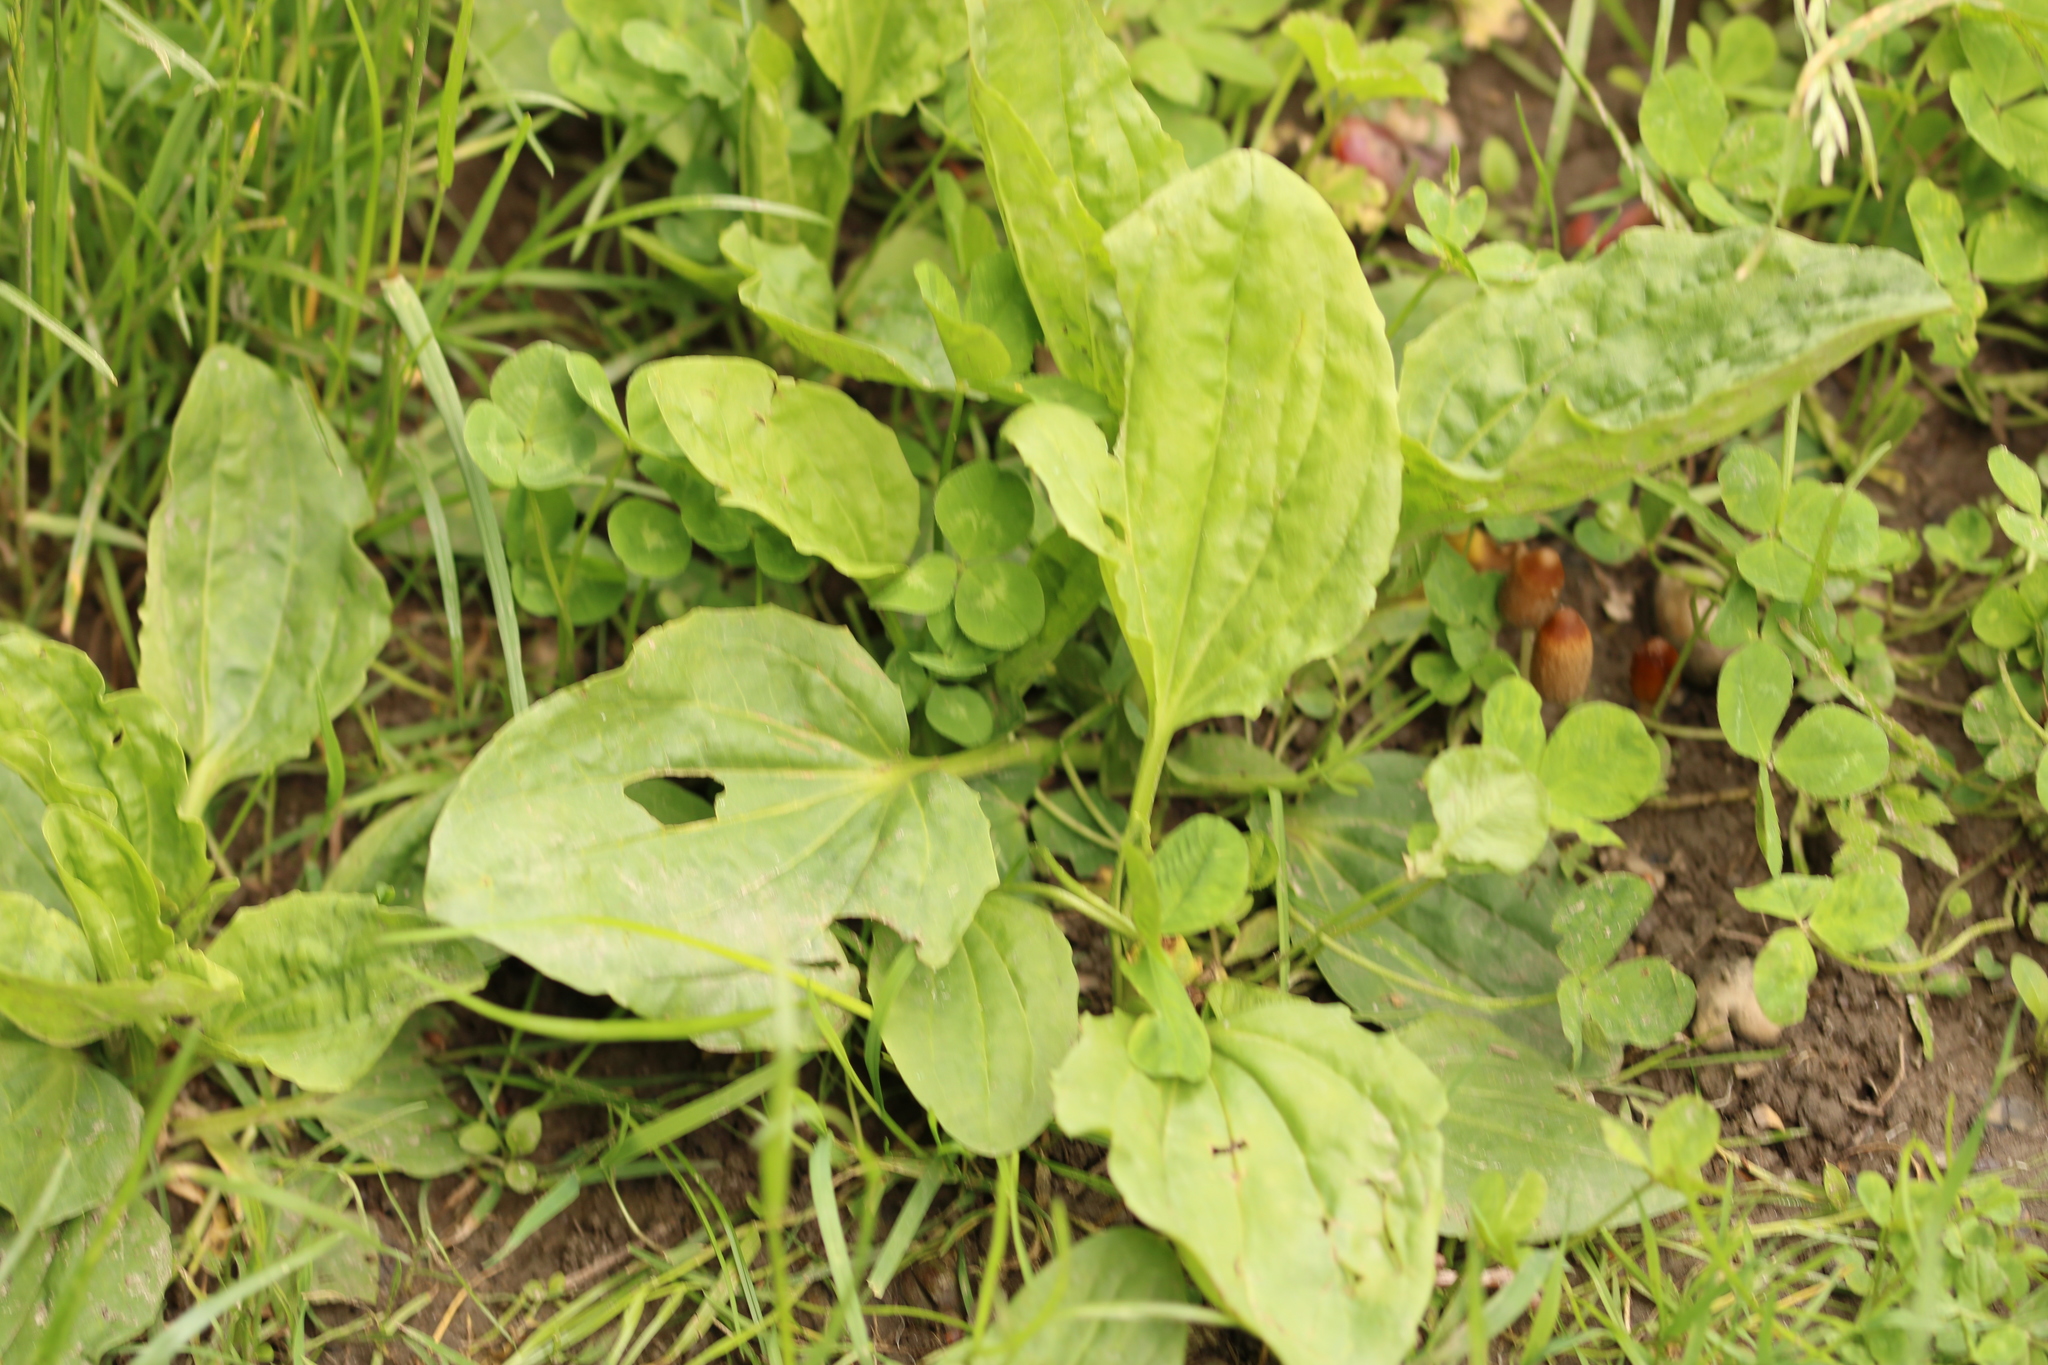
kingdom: Plantae
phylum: Tracheophyta
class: Magnoliopsida
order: Lamiales
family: Plantaginaceae
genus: Plantago
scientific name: Plantago major
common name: Common plantain
